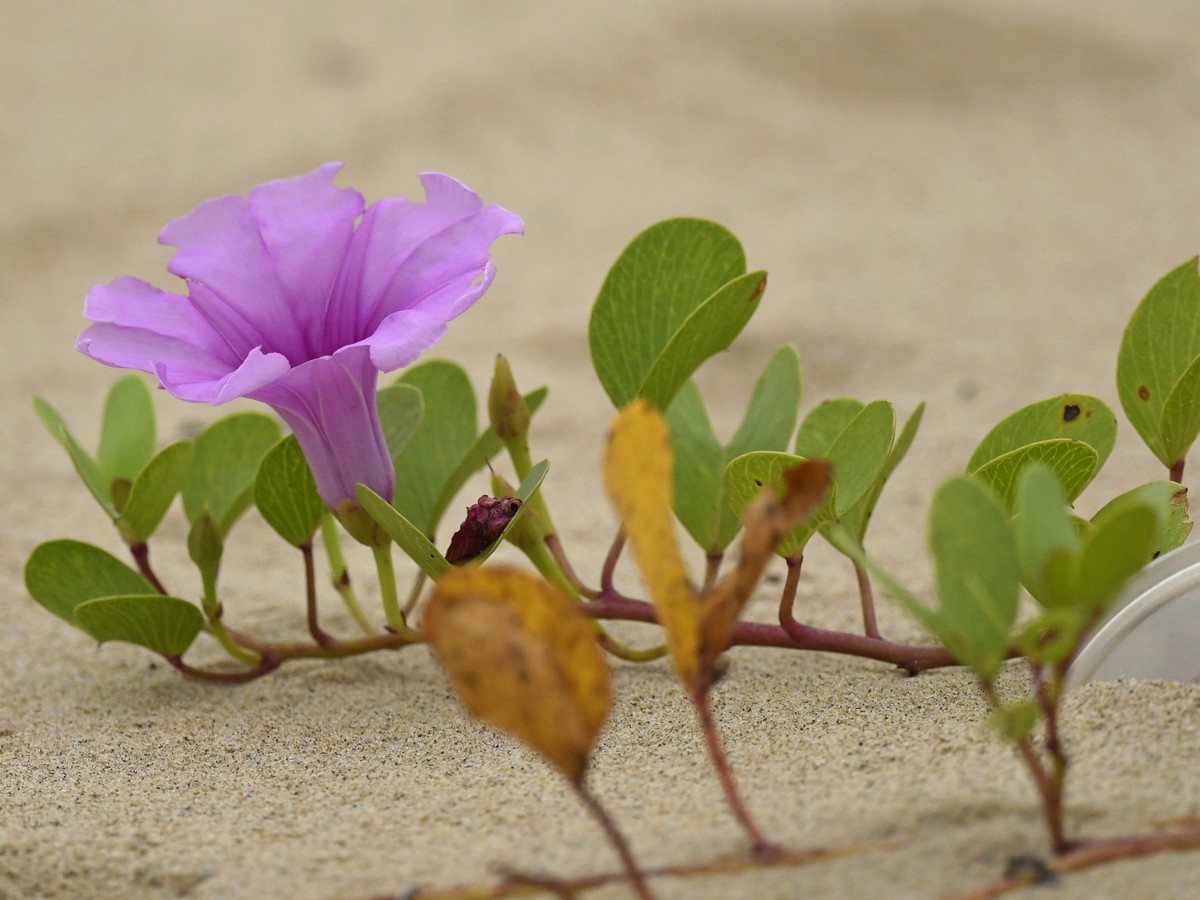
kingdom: Plantae
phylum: Tracheophyta
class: Magnoliopsida
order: Solanales
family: Convolvulaceae
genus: Ipomoea
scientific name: Ipomoea pes-caprae
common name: Beach morning glory
